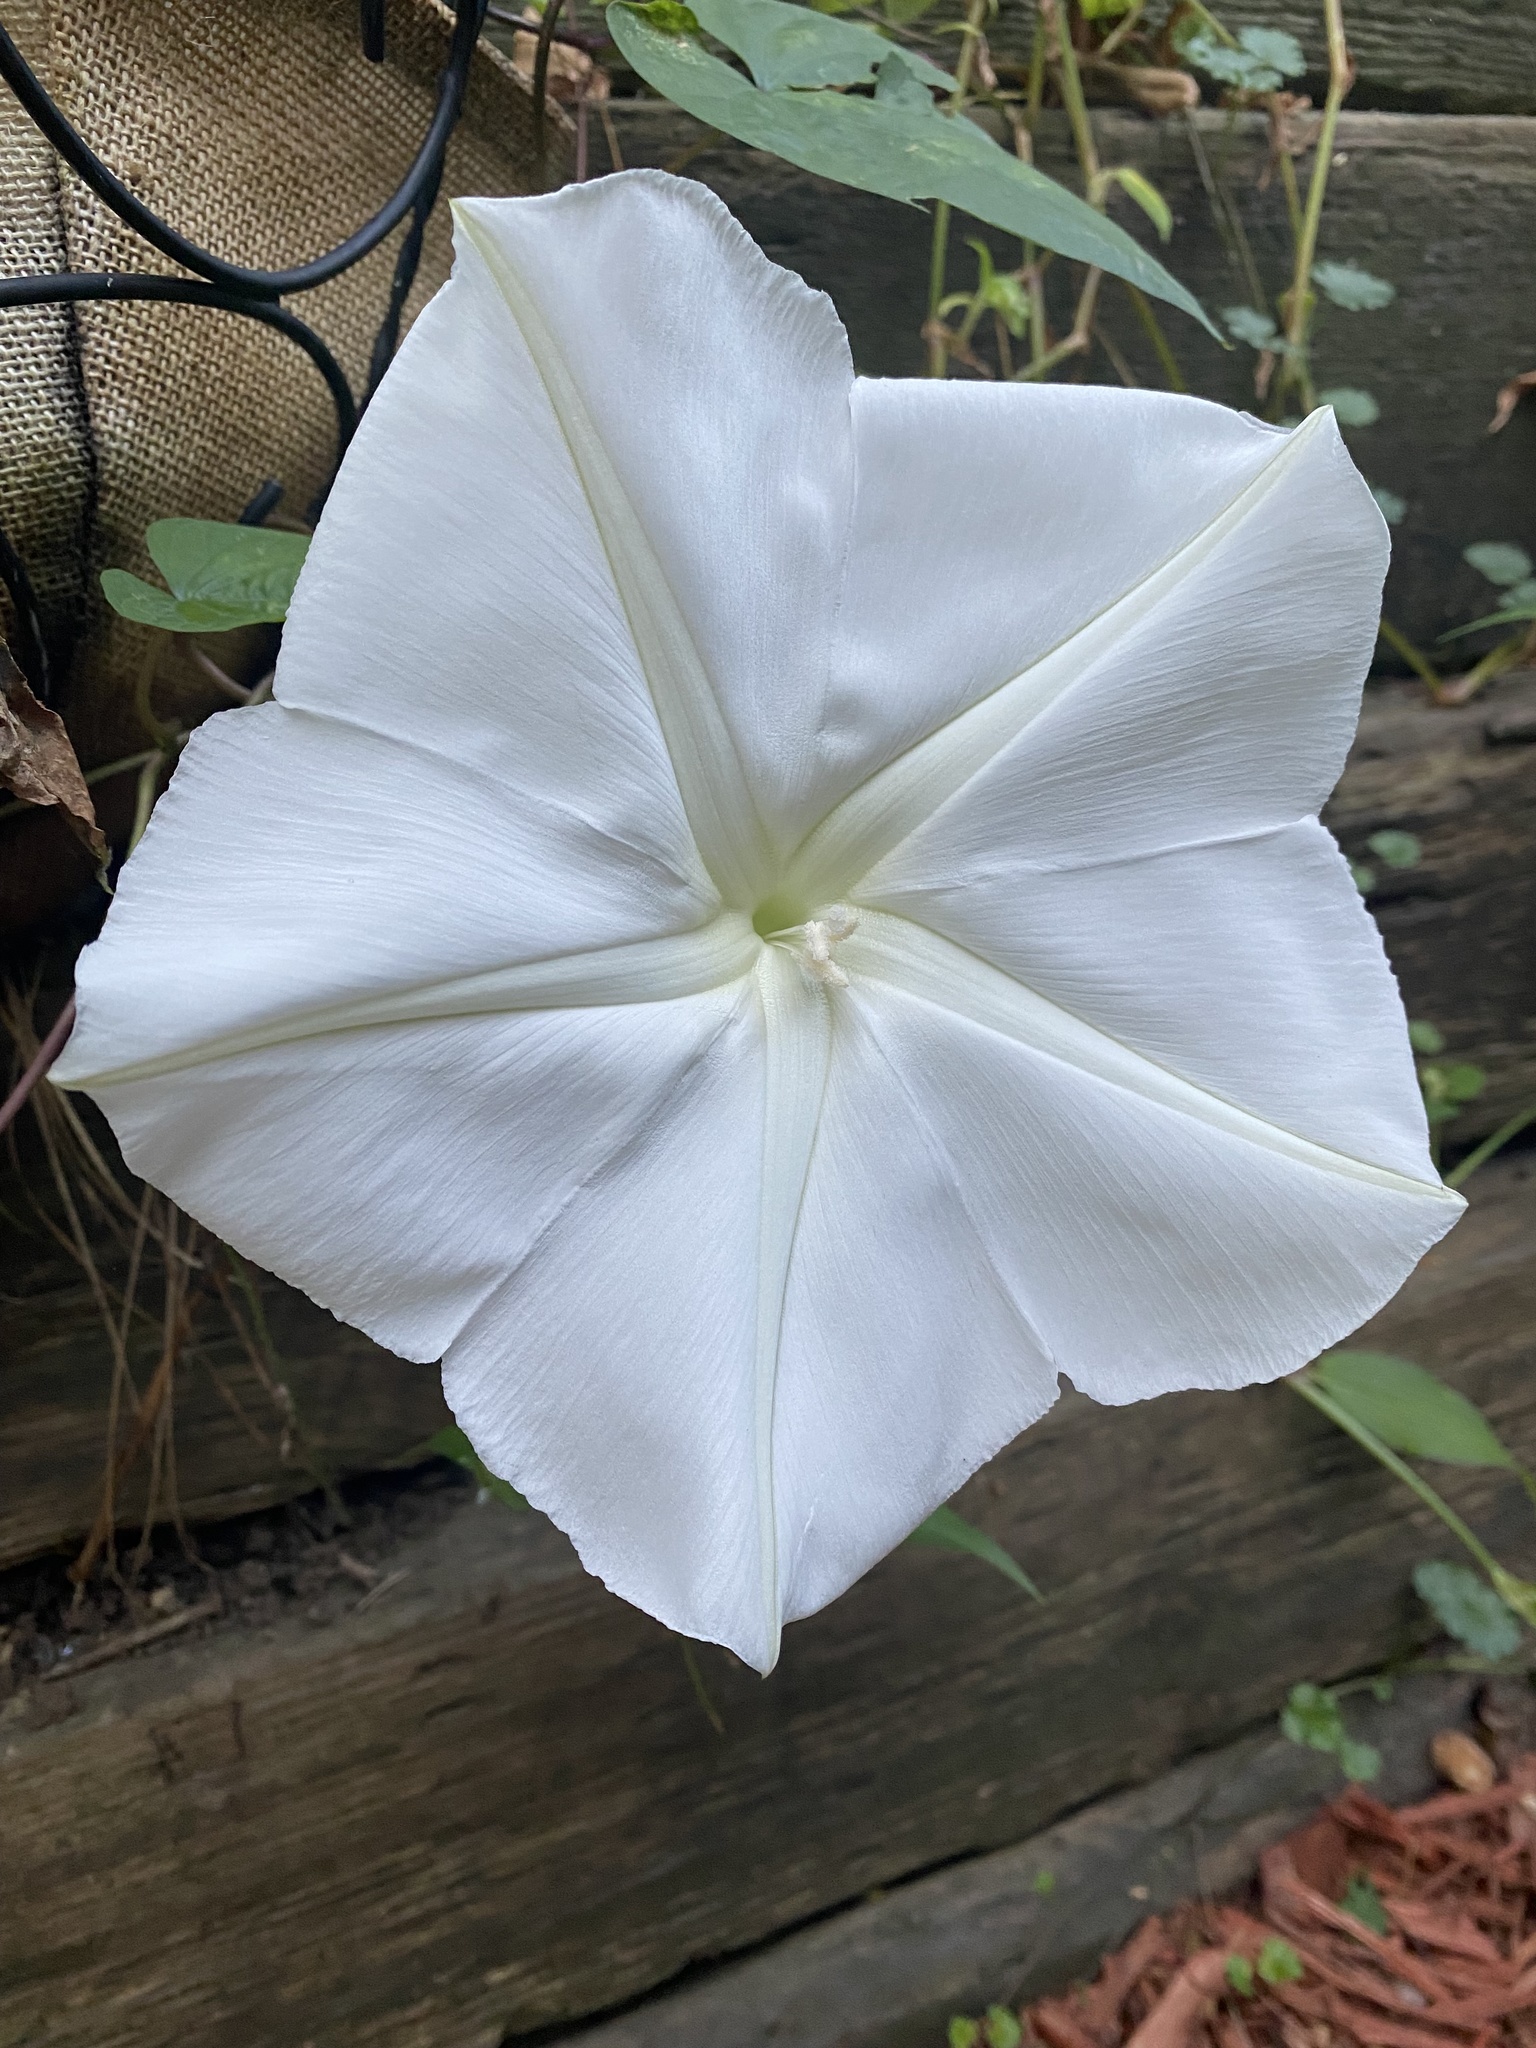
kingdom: Plantae
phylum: Tracheophyta
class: Magnoliopsida
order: Solanales
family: Convolvulaceae
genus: Ipomoea
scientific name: Ipomoea alba
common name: Moonflower
